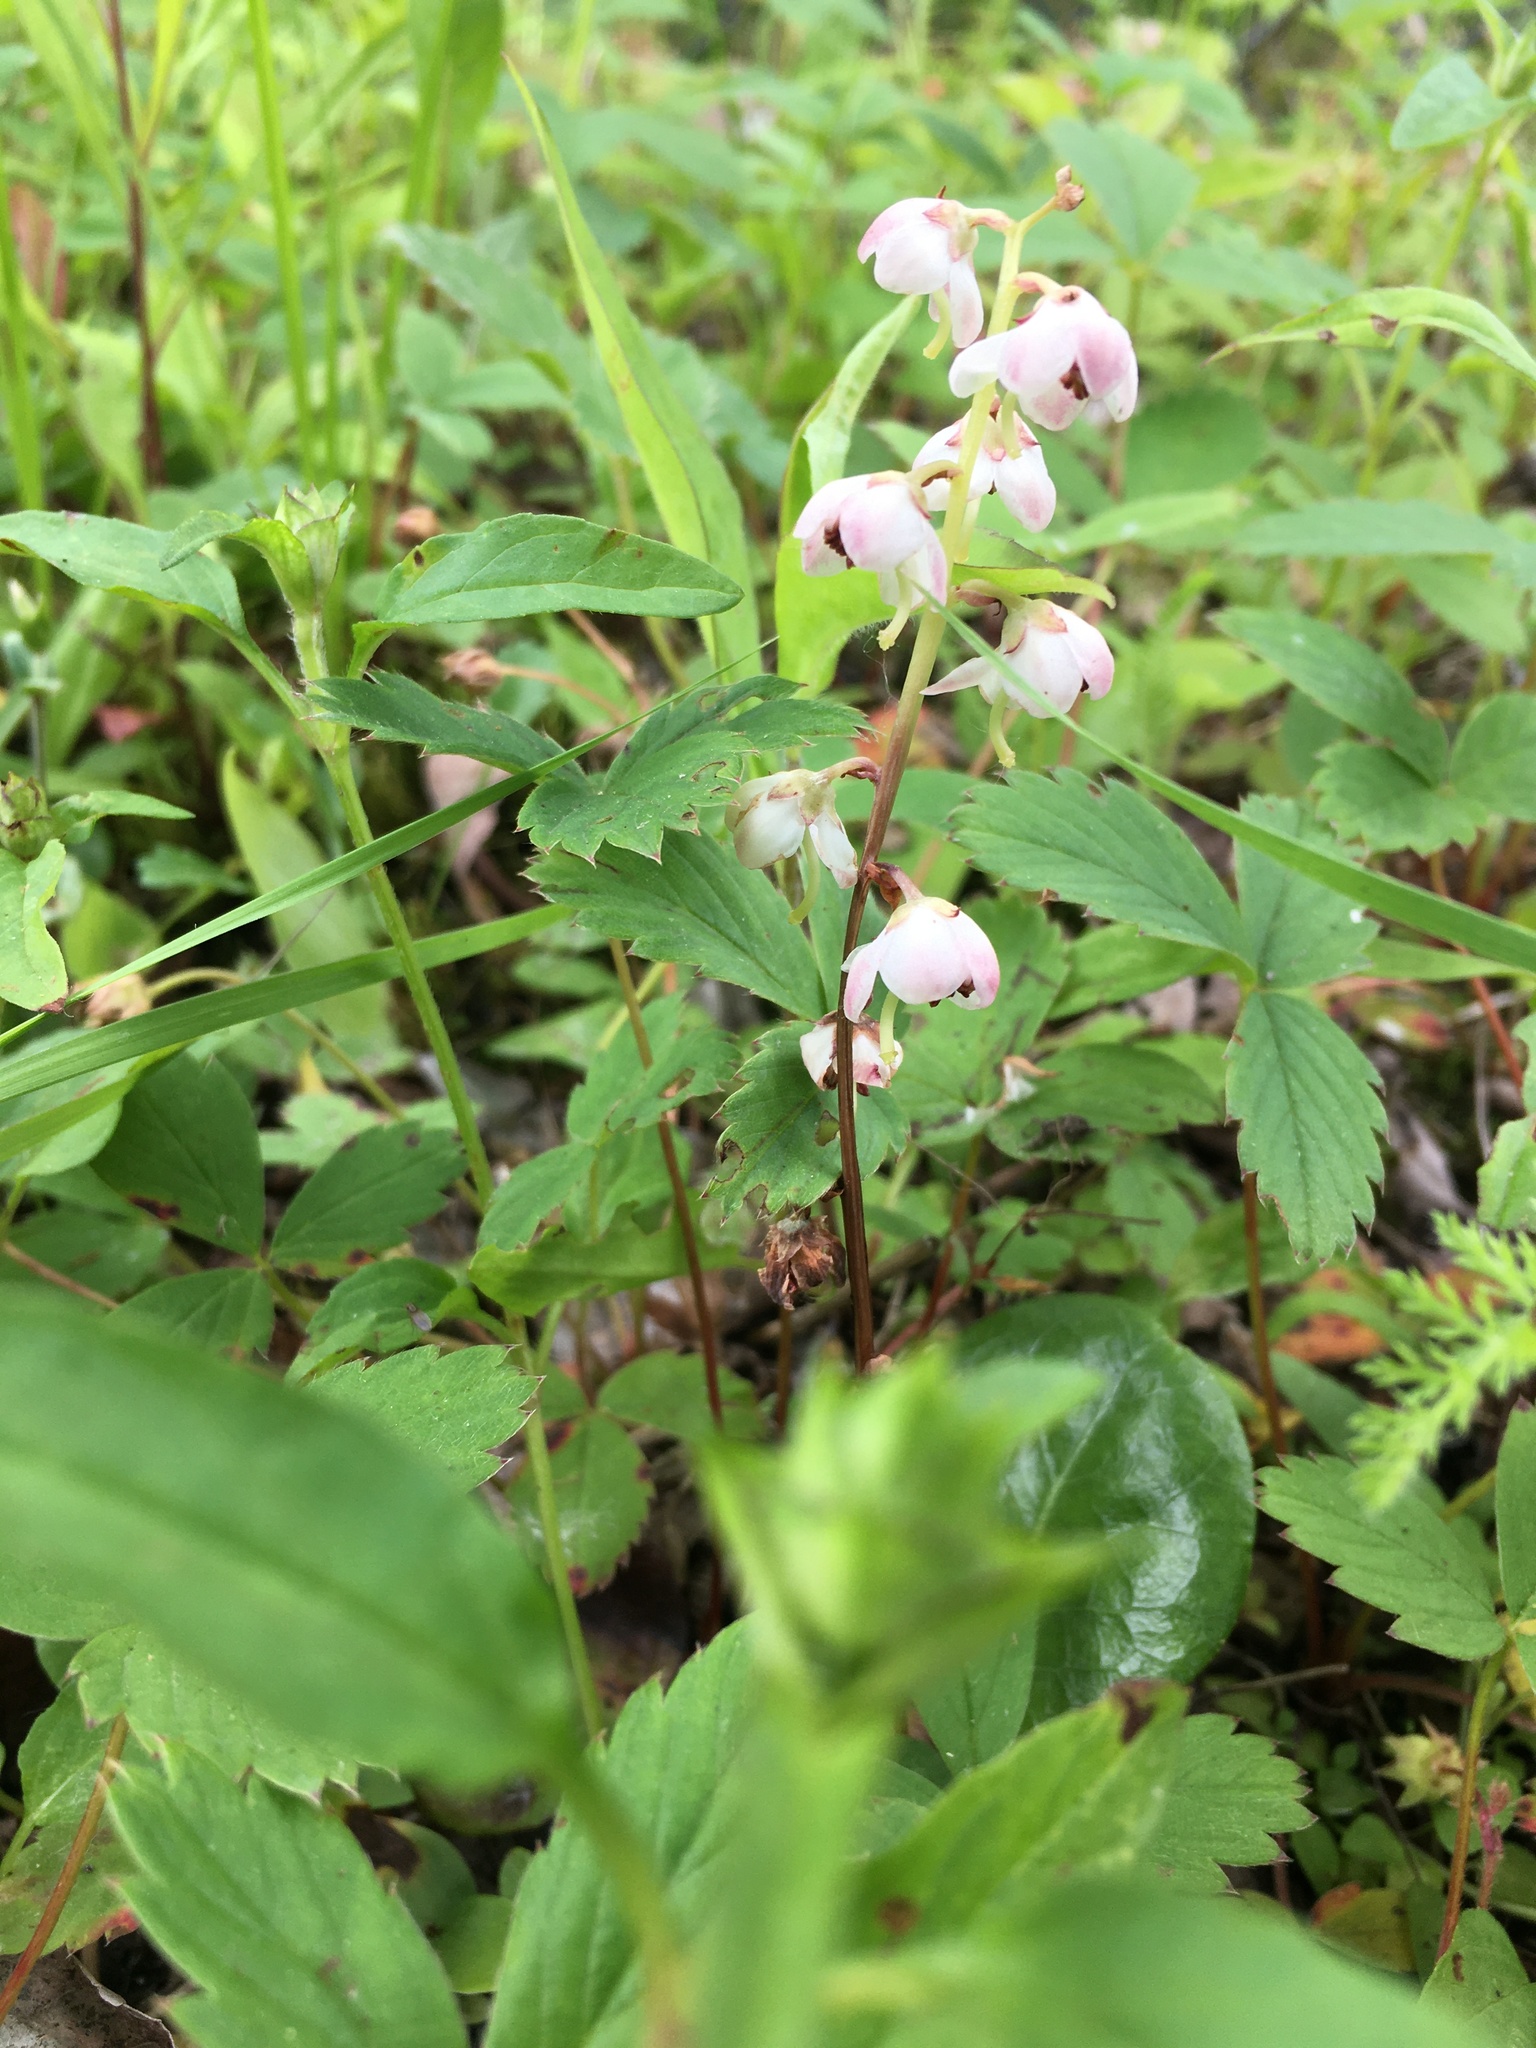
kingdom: Plantae
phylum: Tracheophyta
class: Magnoliopsida
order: Ericales
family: Ericaceae
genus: Pyrola
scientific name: Pyrola asarifolia
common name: Bog wintergreen
